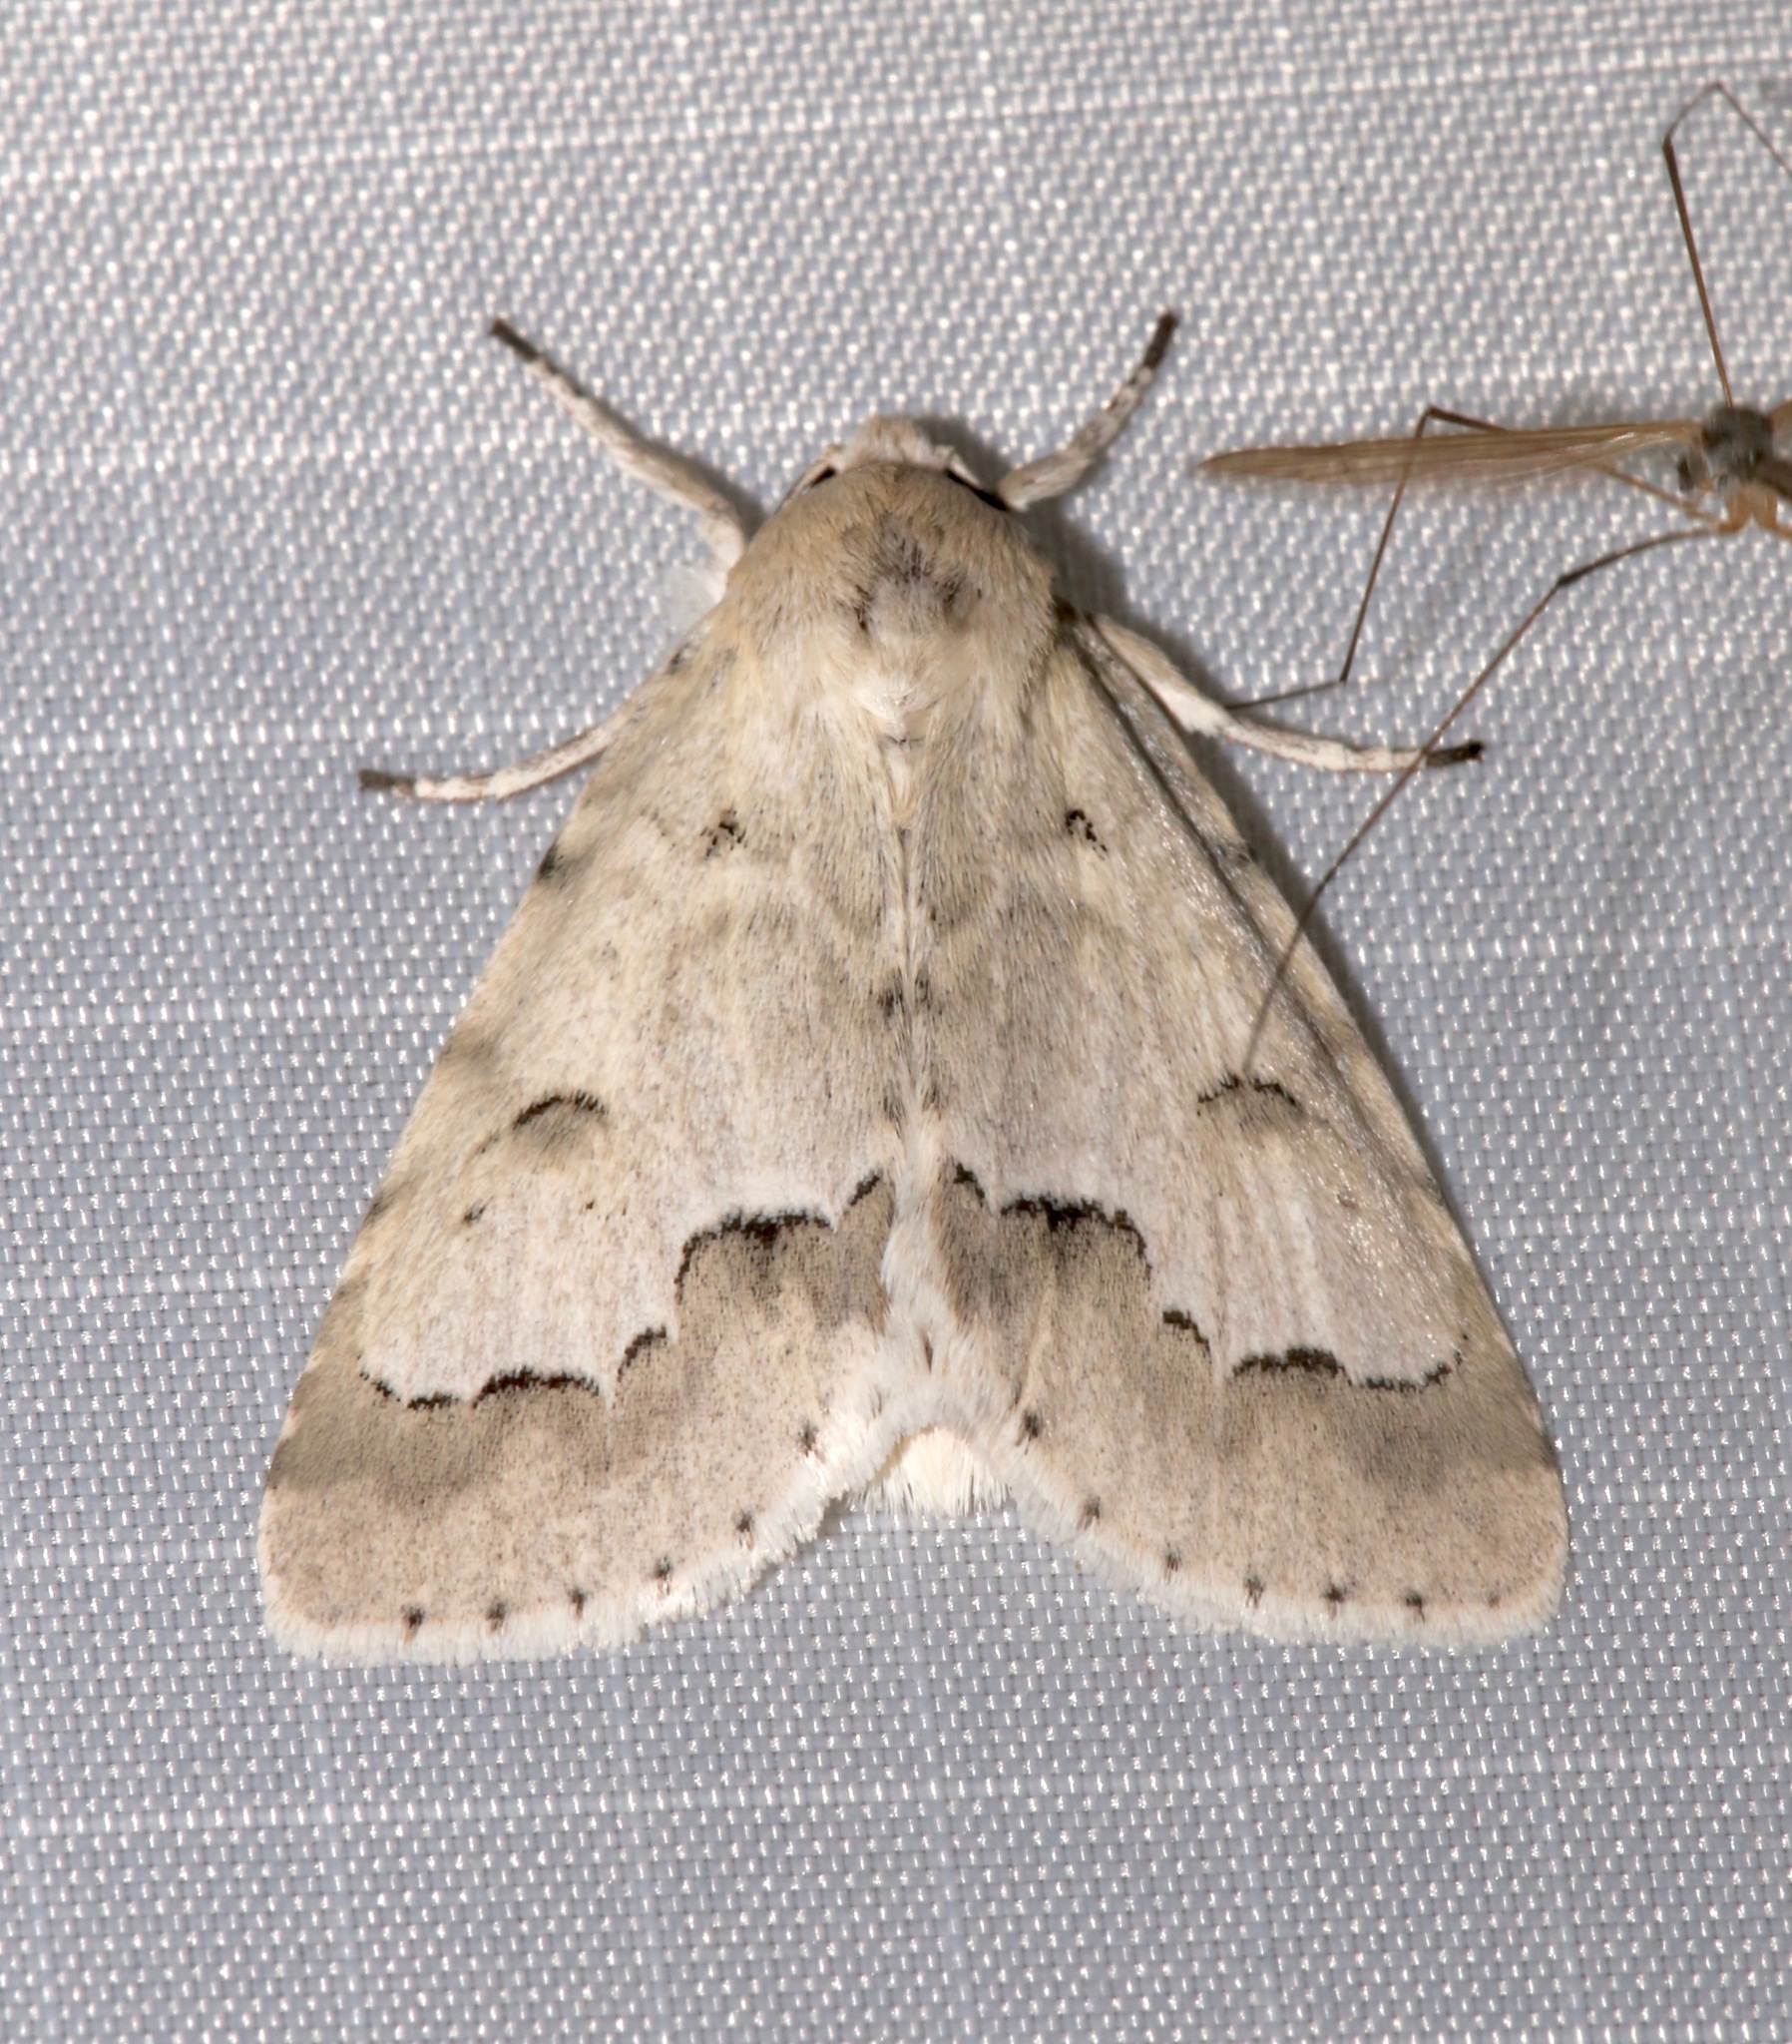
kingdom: Animalia
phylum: Arthropoda
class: Insecta
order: Lepidoptera
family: Noctuidae
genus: Acronicta
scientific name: Acronicta innotata
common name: Unmarked dagger
